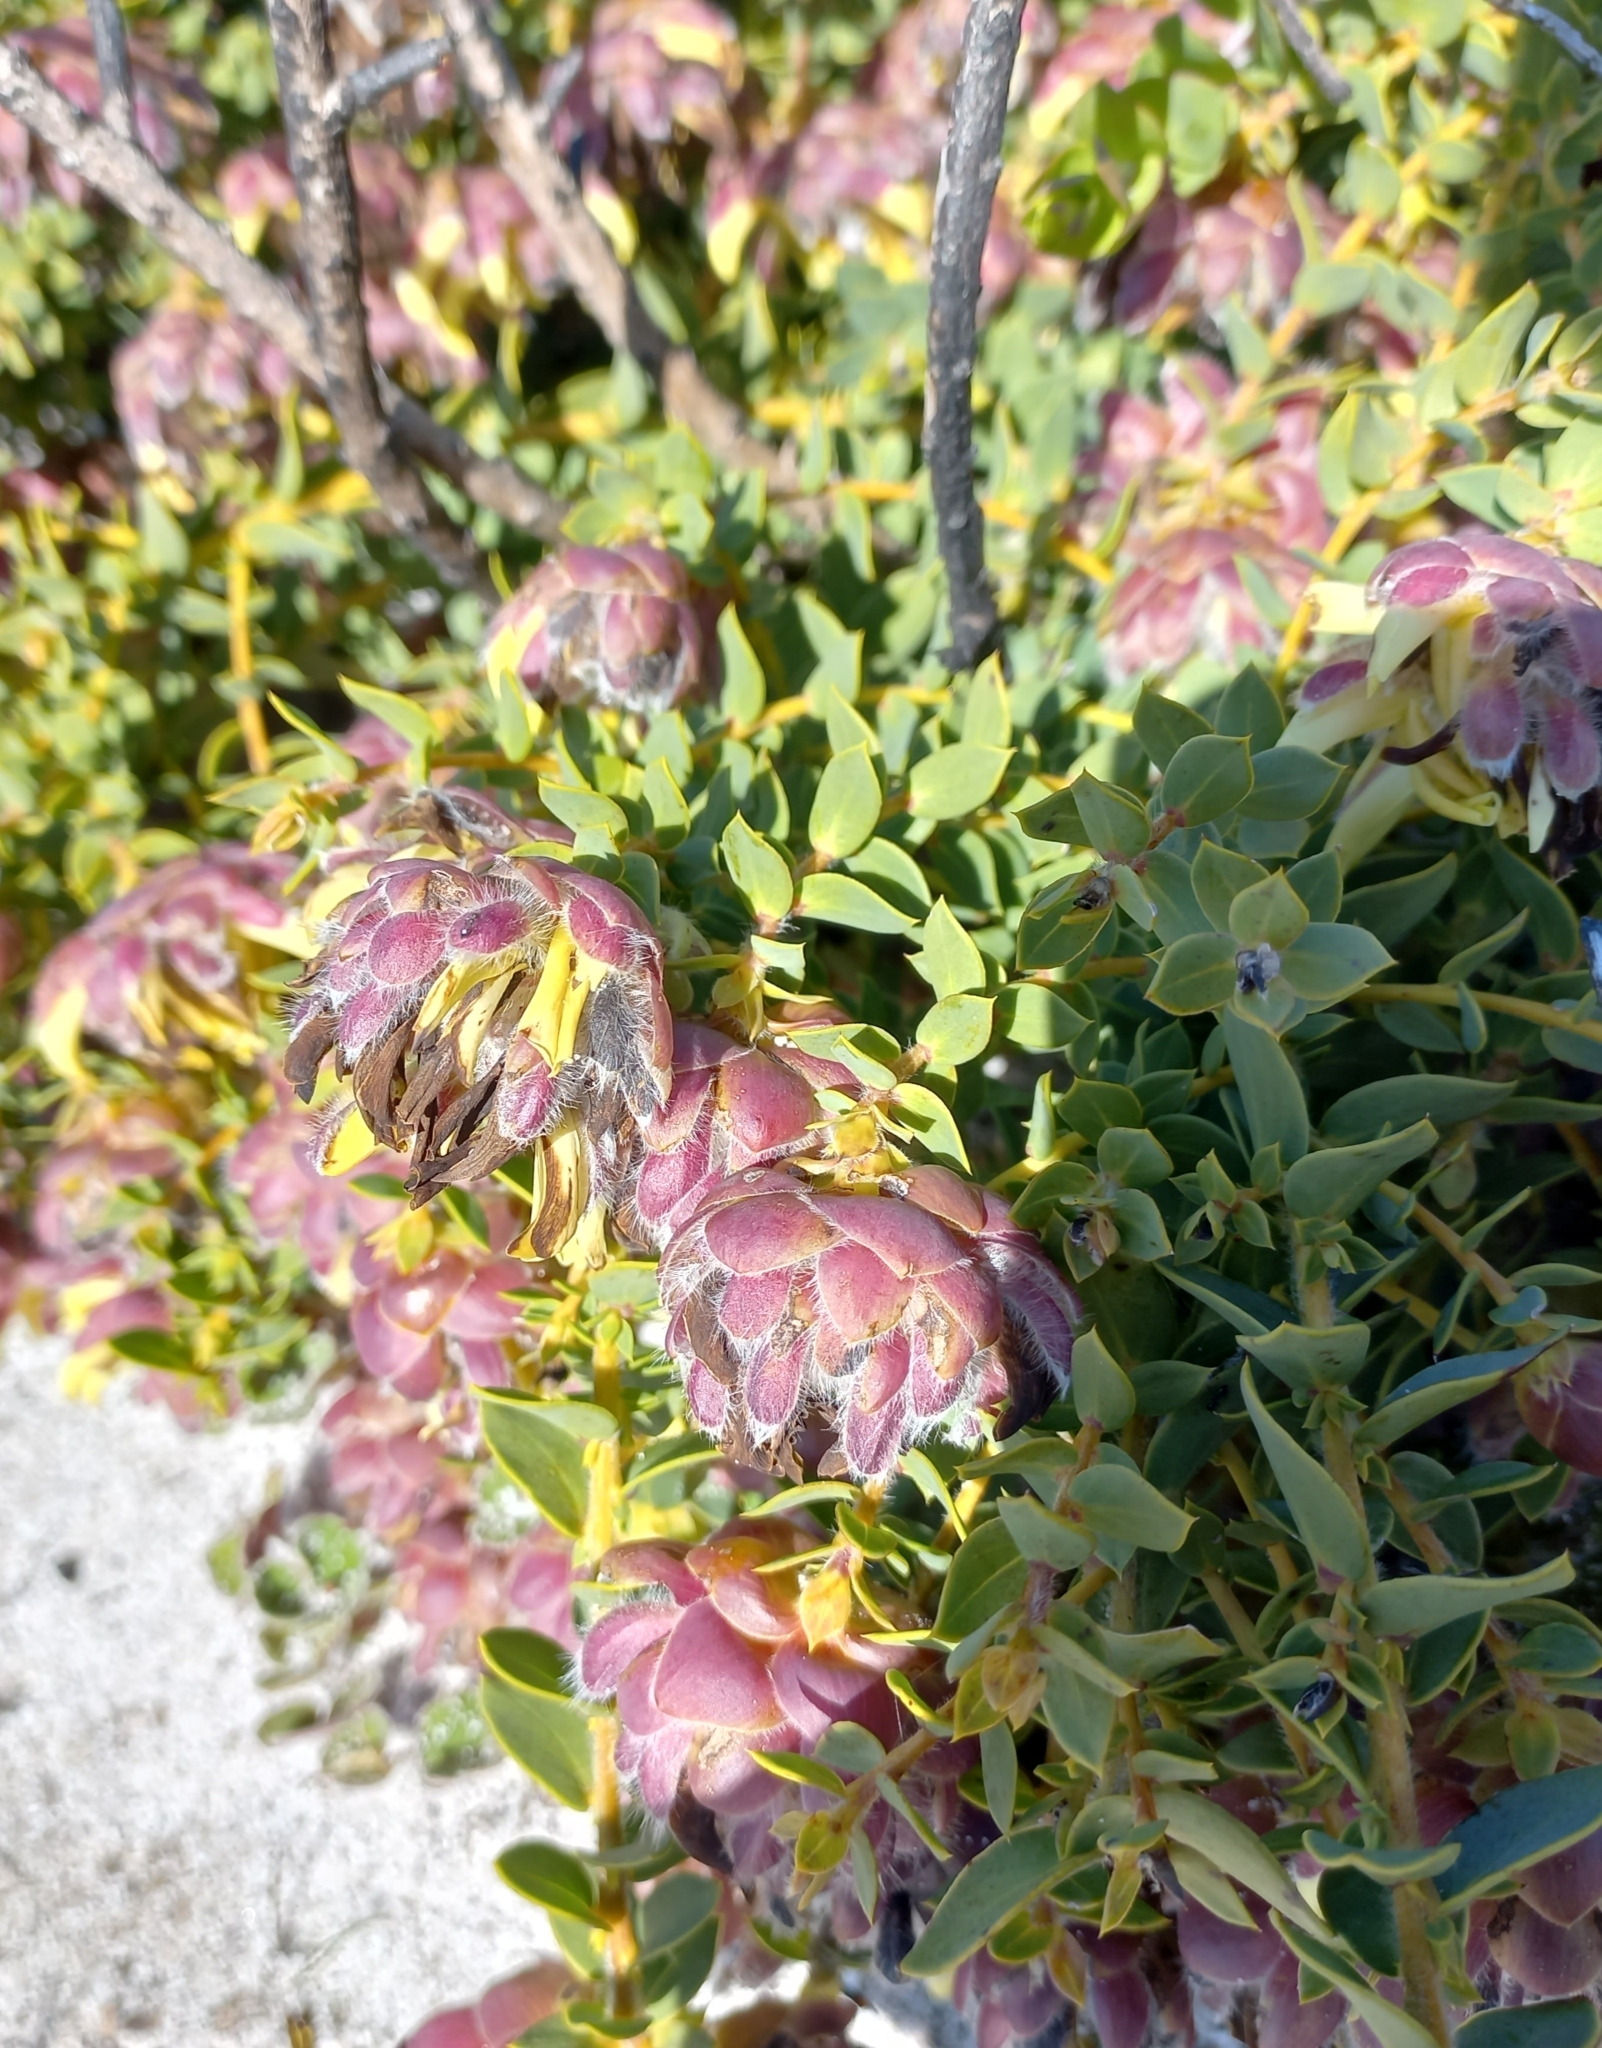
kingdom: Plantae
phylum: Tracheophyta
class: Magnoliopsida
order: Fabales
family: Fabaceae
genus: Liparia
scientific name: Liparia parva
